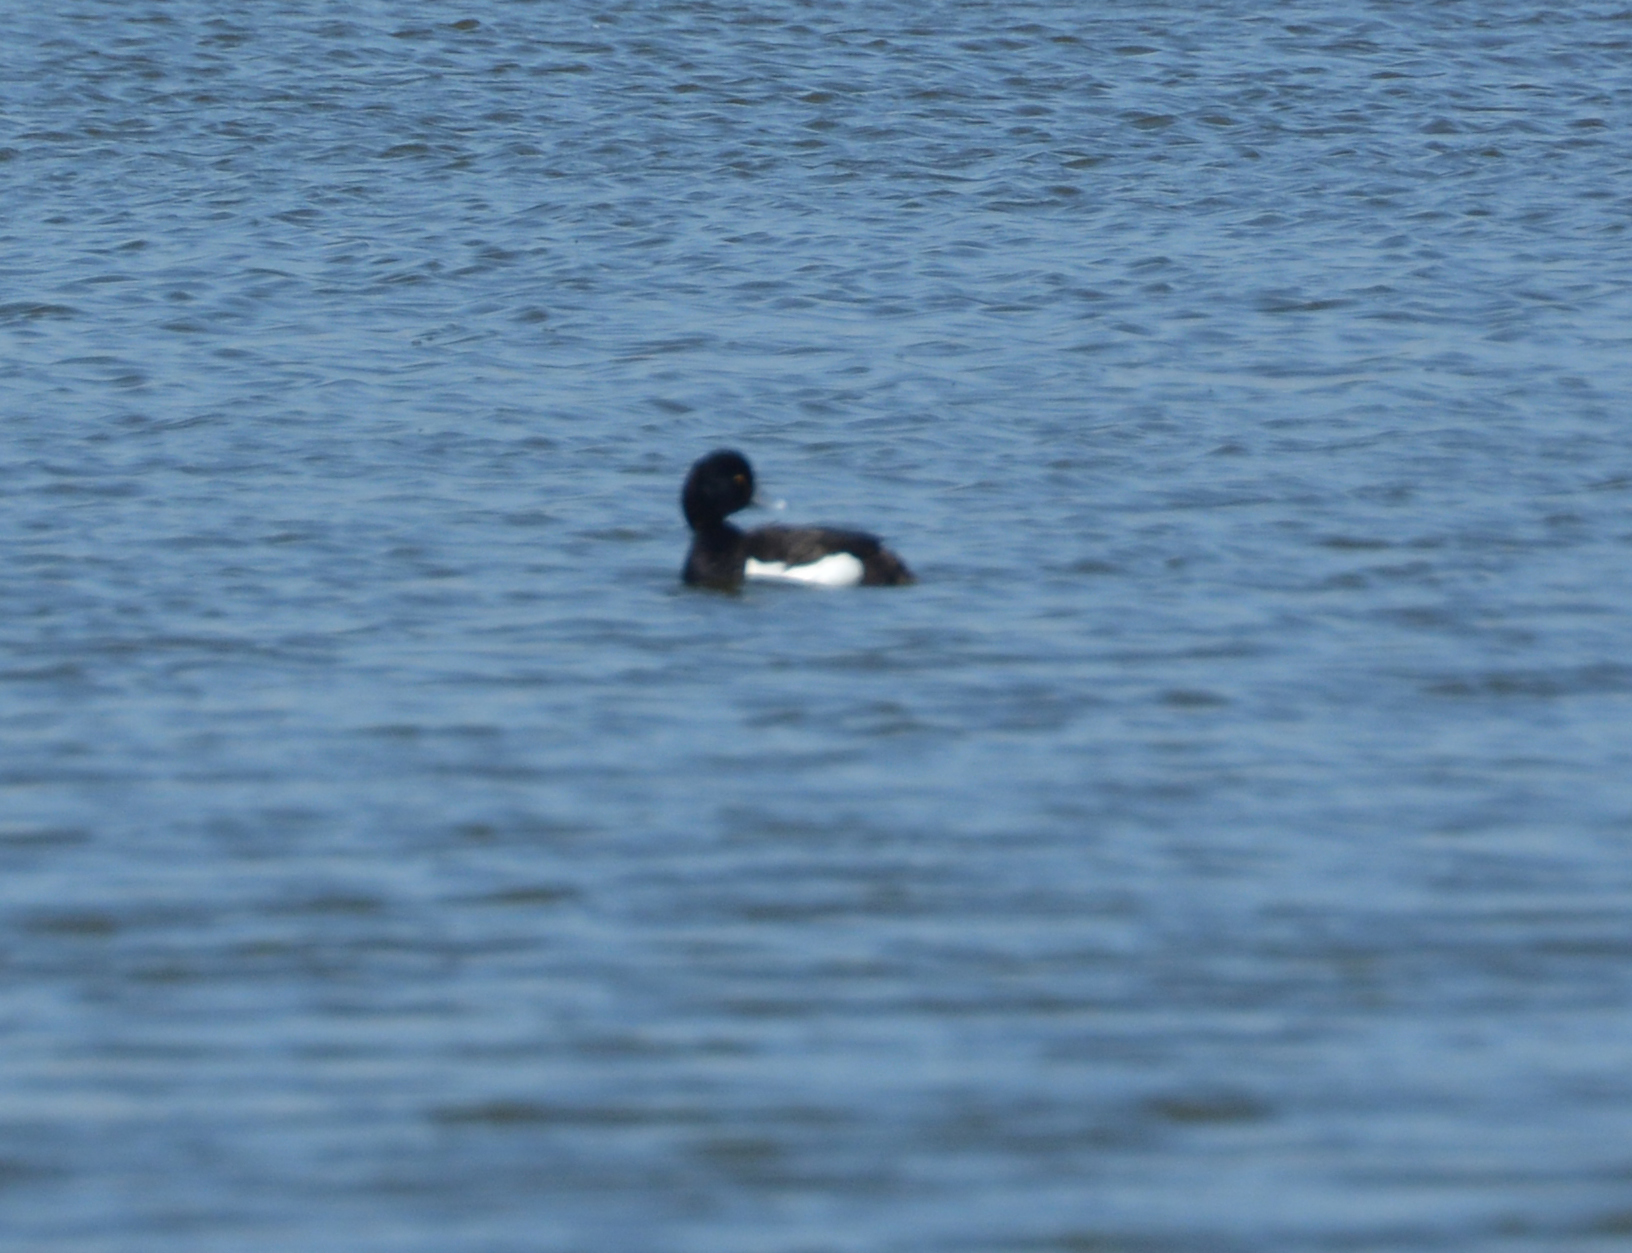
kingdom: Animalia
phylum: Chordata
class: Aves
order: Anseriformes
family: Anatidae
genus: Aythya
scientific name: Aythya fuligula
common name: Tufted duck
